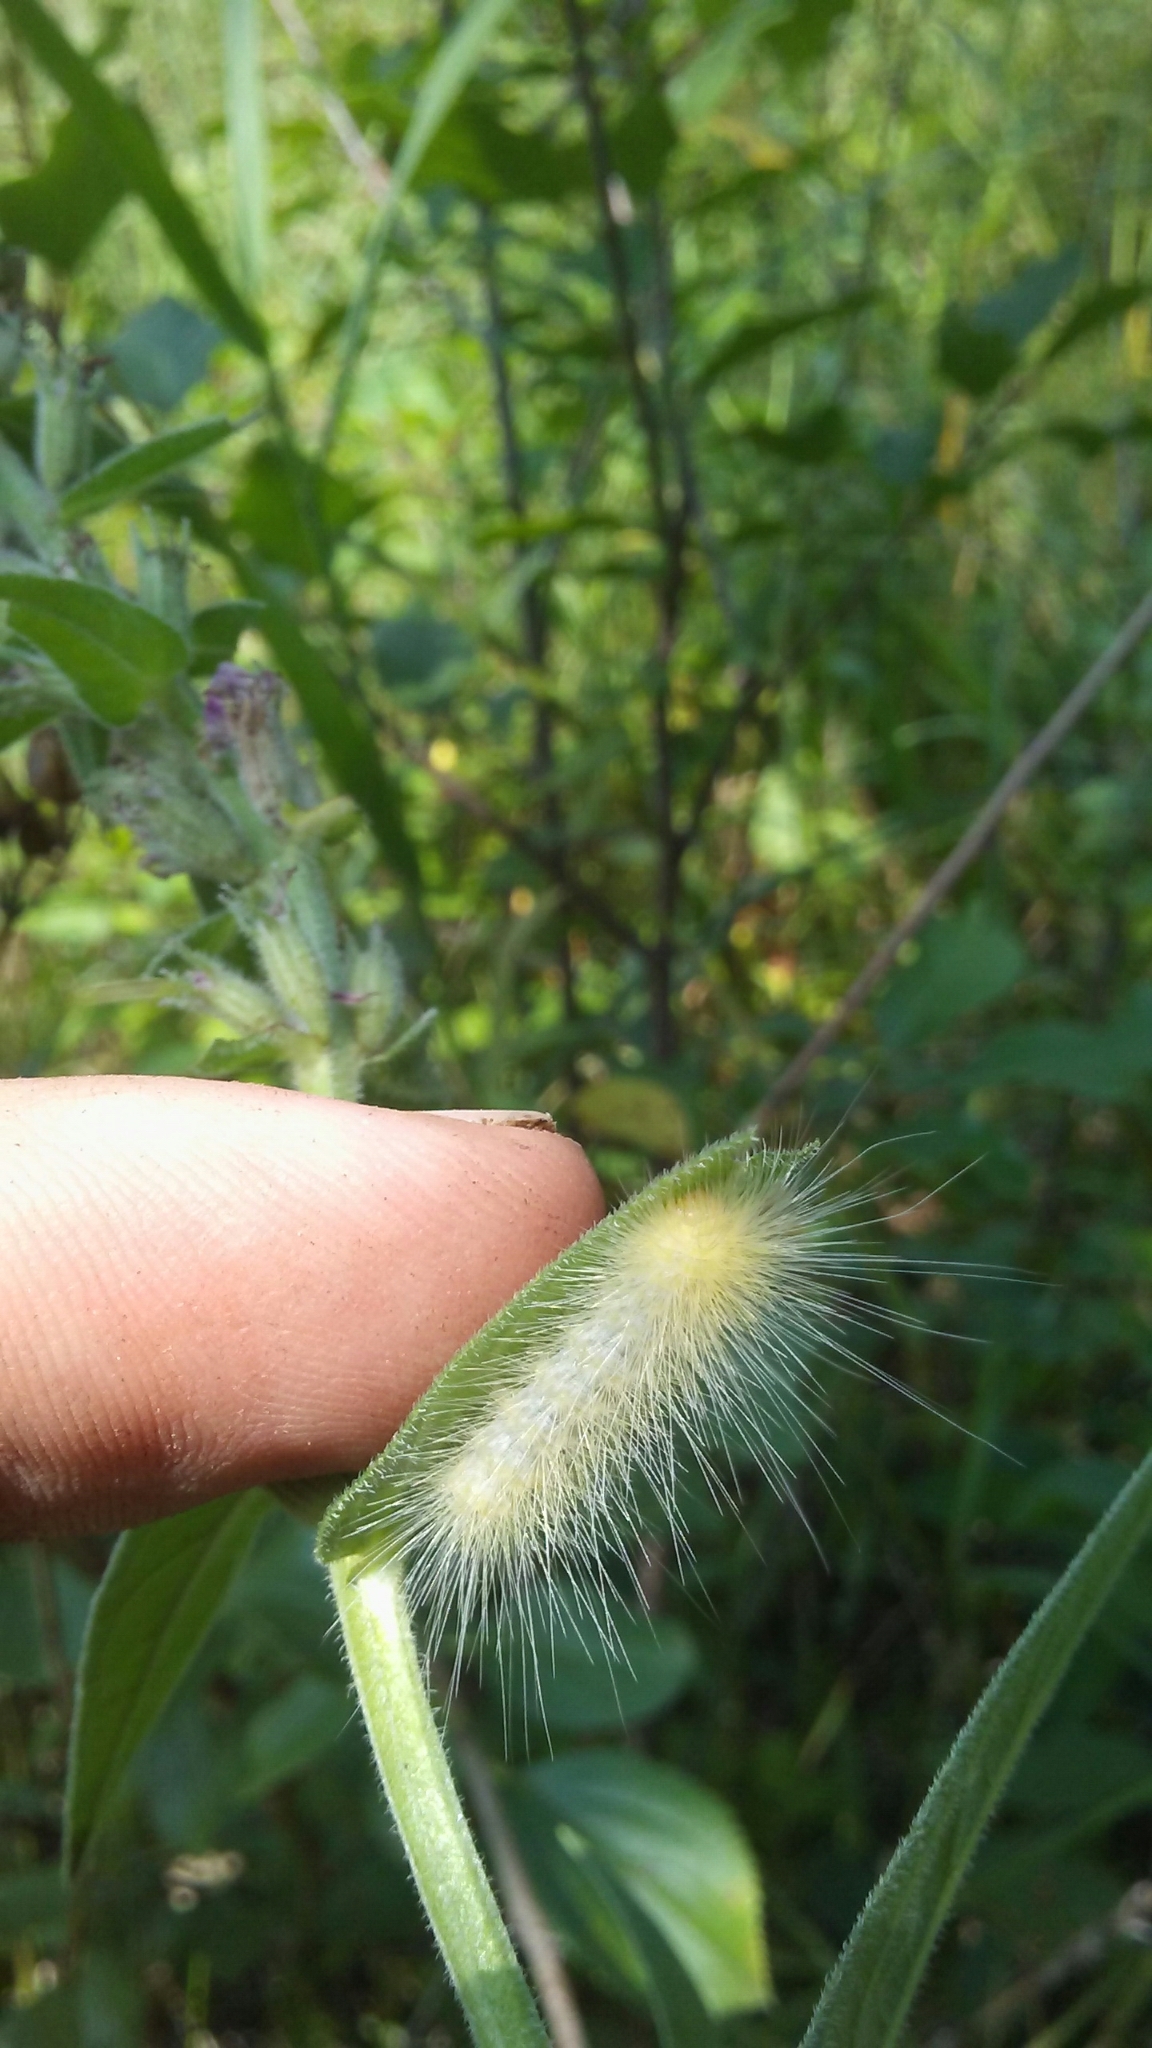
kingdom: Animalia
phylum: Arthropoda
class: Insecta
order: Lepidoptera
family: Erebidae
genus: Spilosoma
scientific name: Spilosoma virginica
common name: Virginia tiger moth
